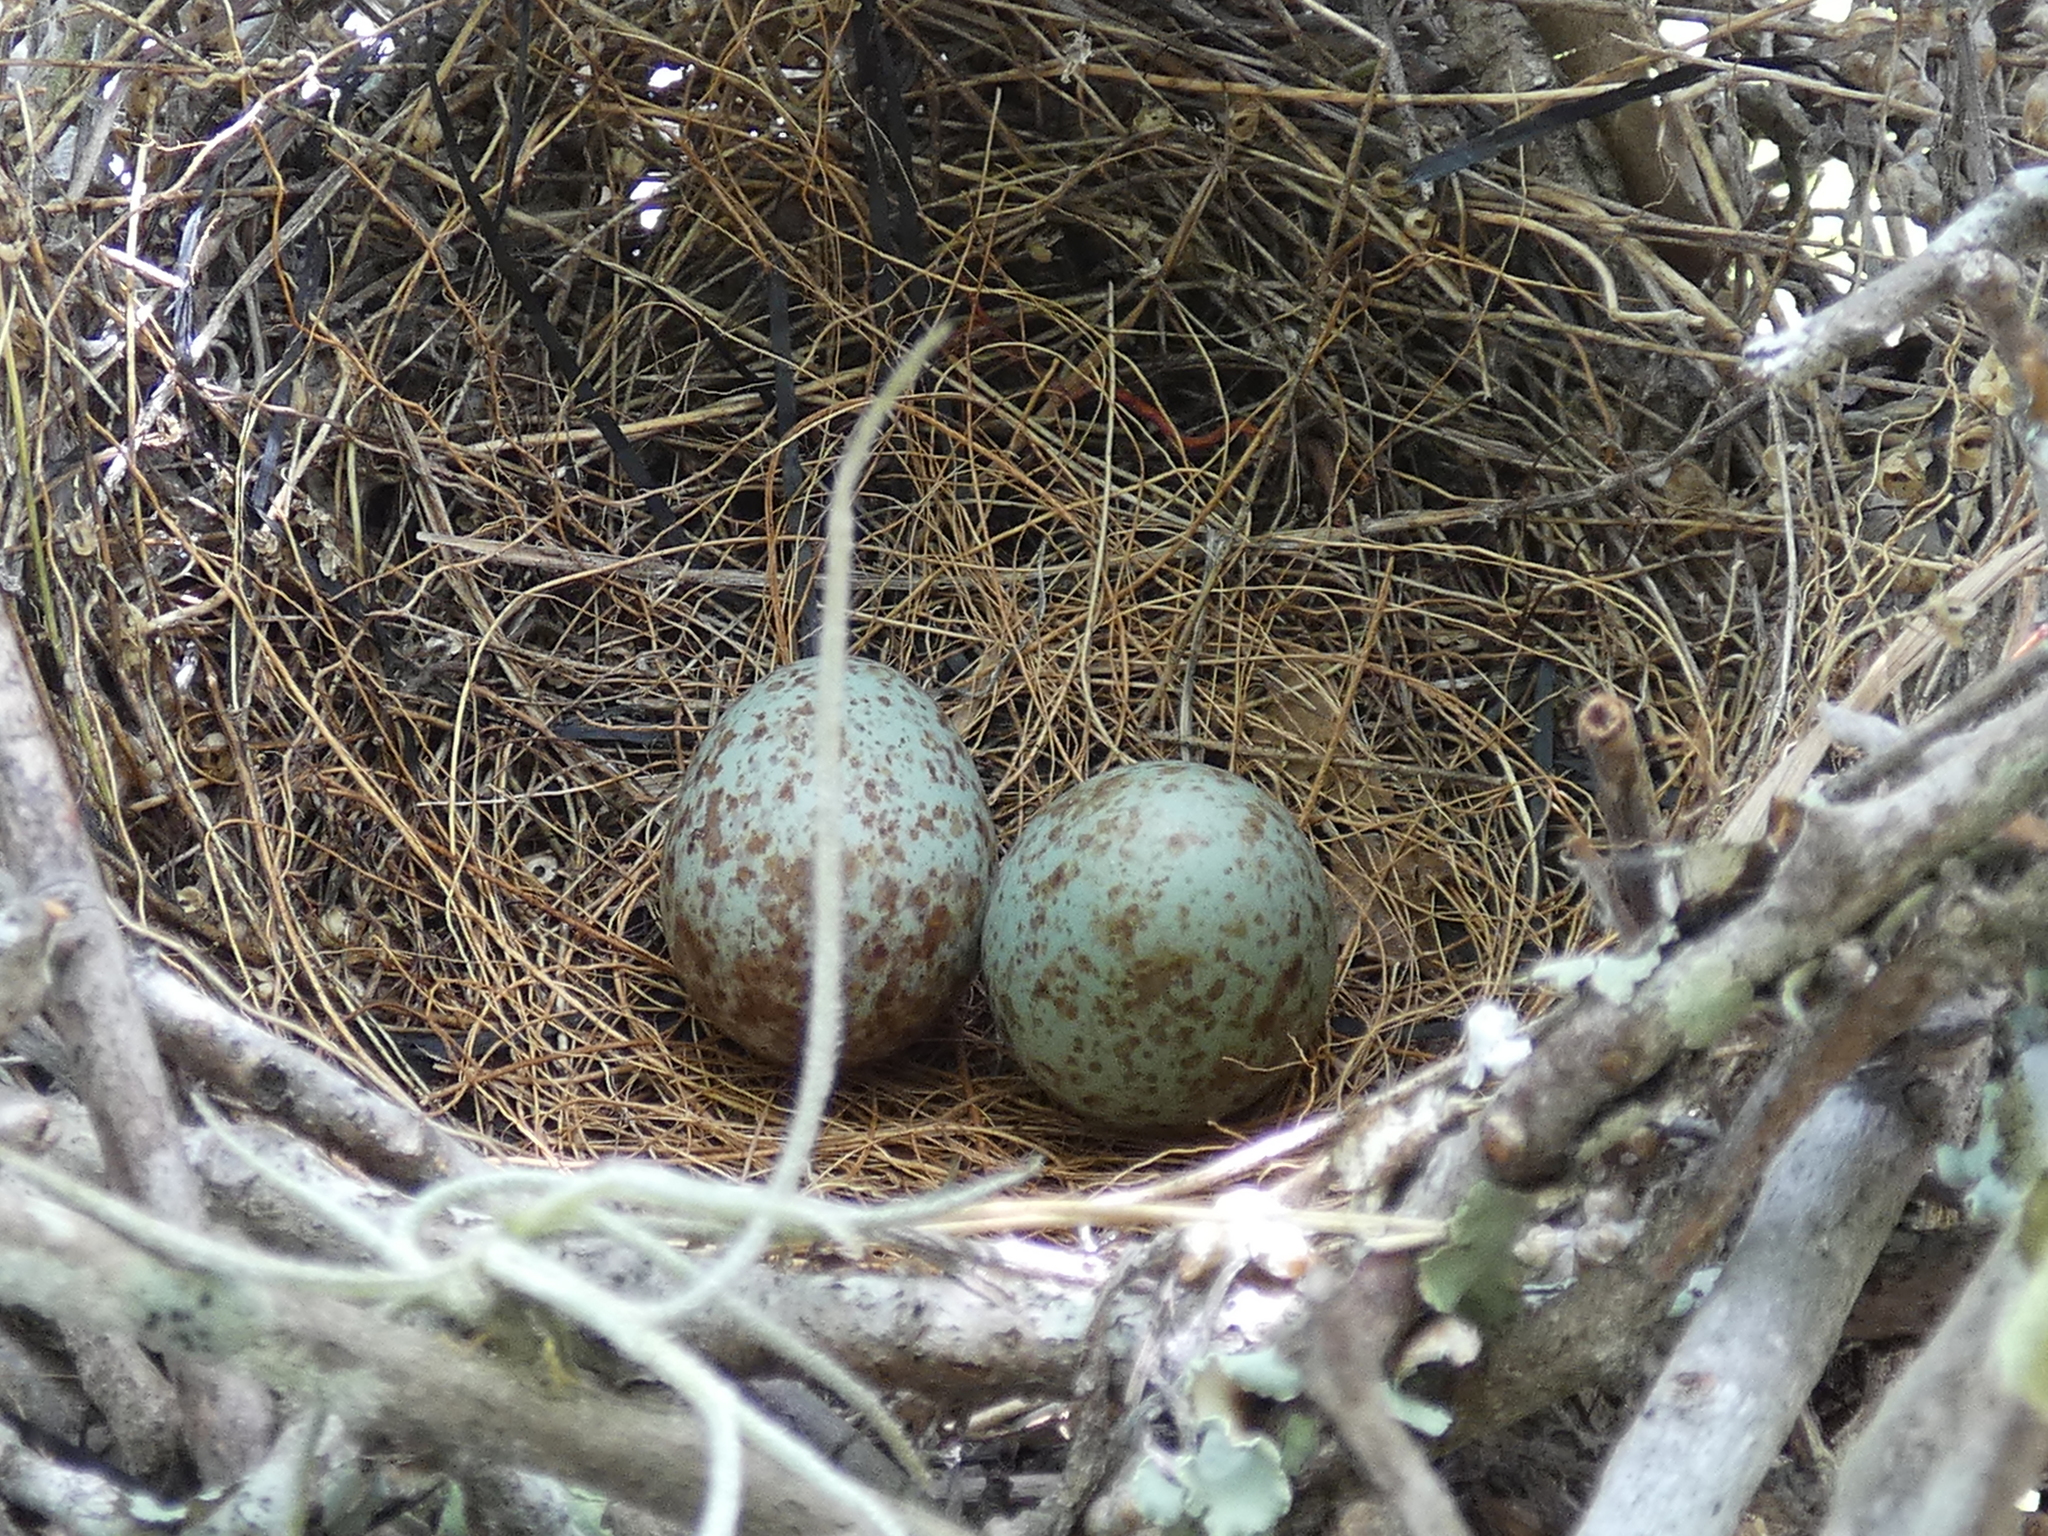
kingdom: Animalia
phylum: Chordata
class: Aves
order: Passeriformes
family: Mimidae
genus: Mimus
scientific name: Mimus polyglottos
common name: Northern mockingbird
